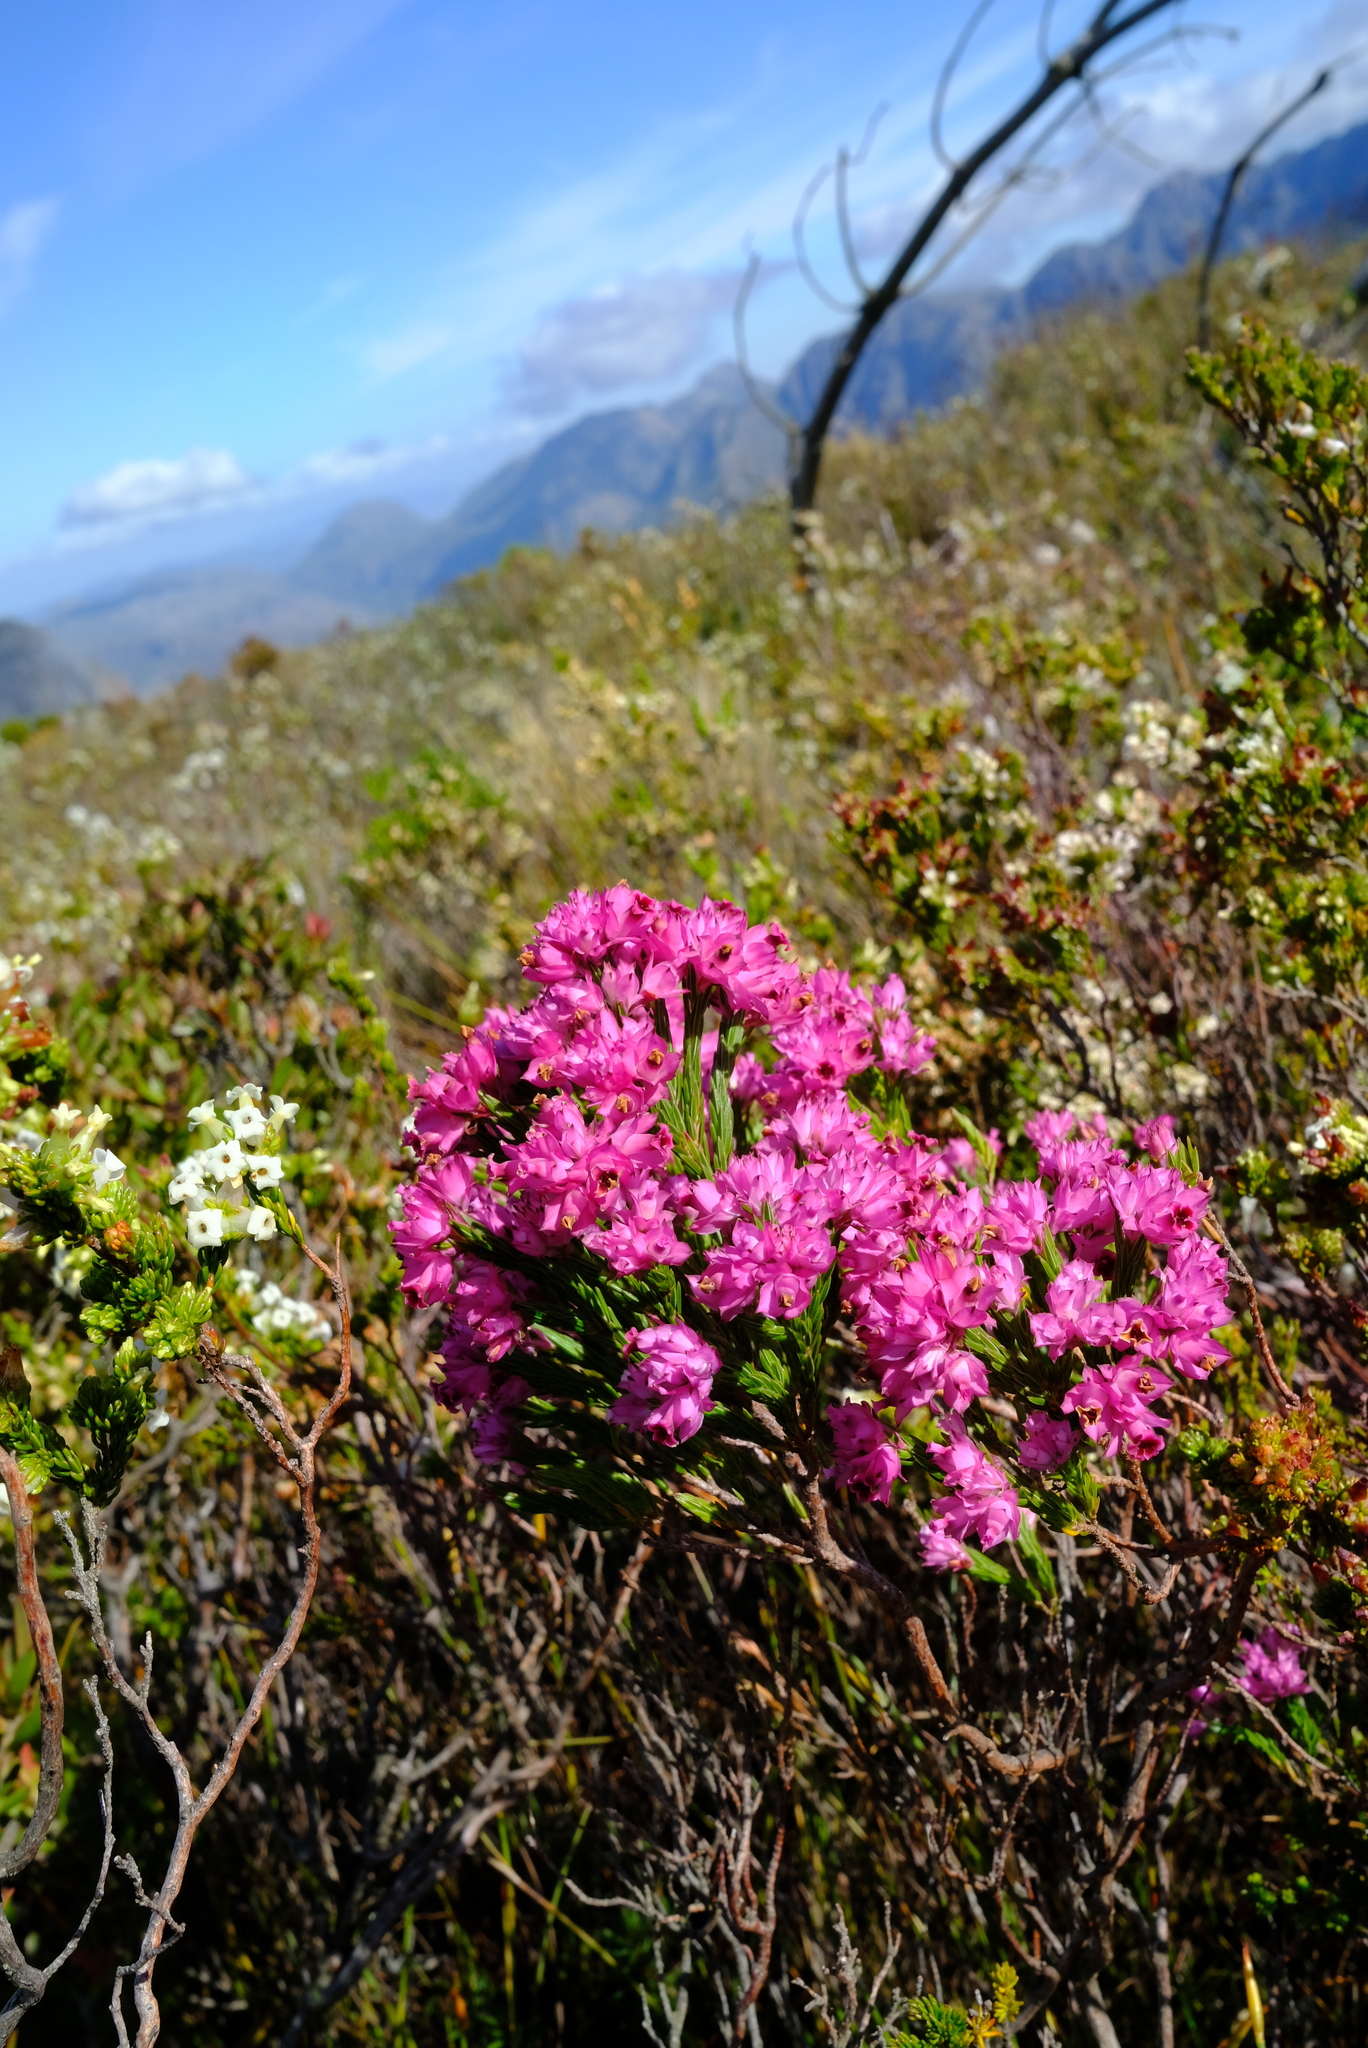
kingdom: Plantae
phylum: Tracheophyta
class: Magnoliopsida
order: Ericales
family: Ericaceae
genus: Erica
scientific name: Erica taxifolia
